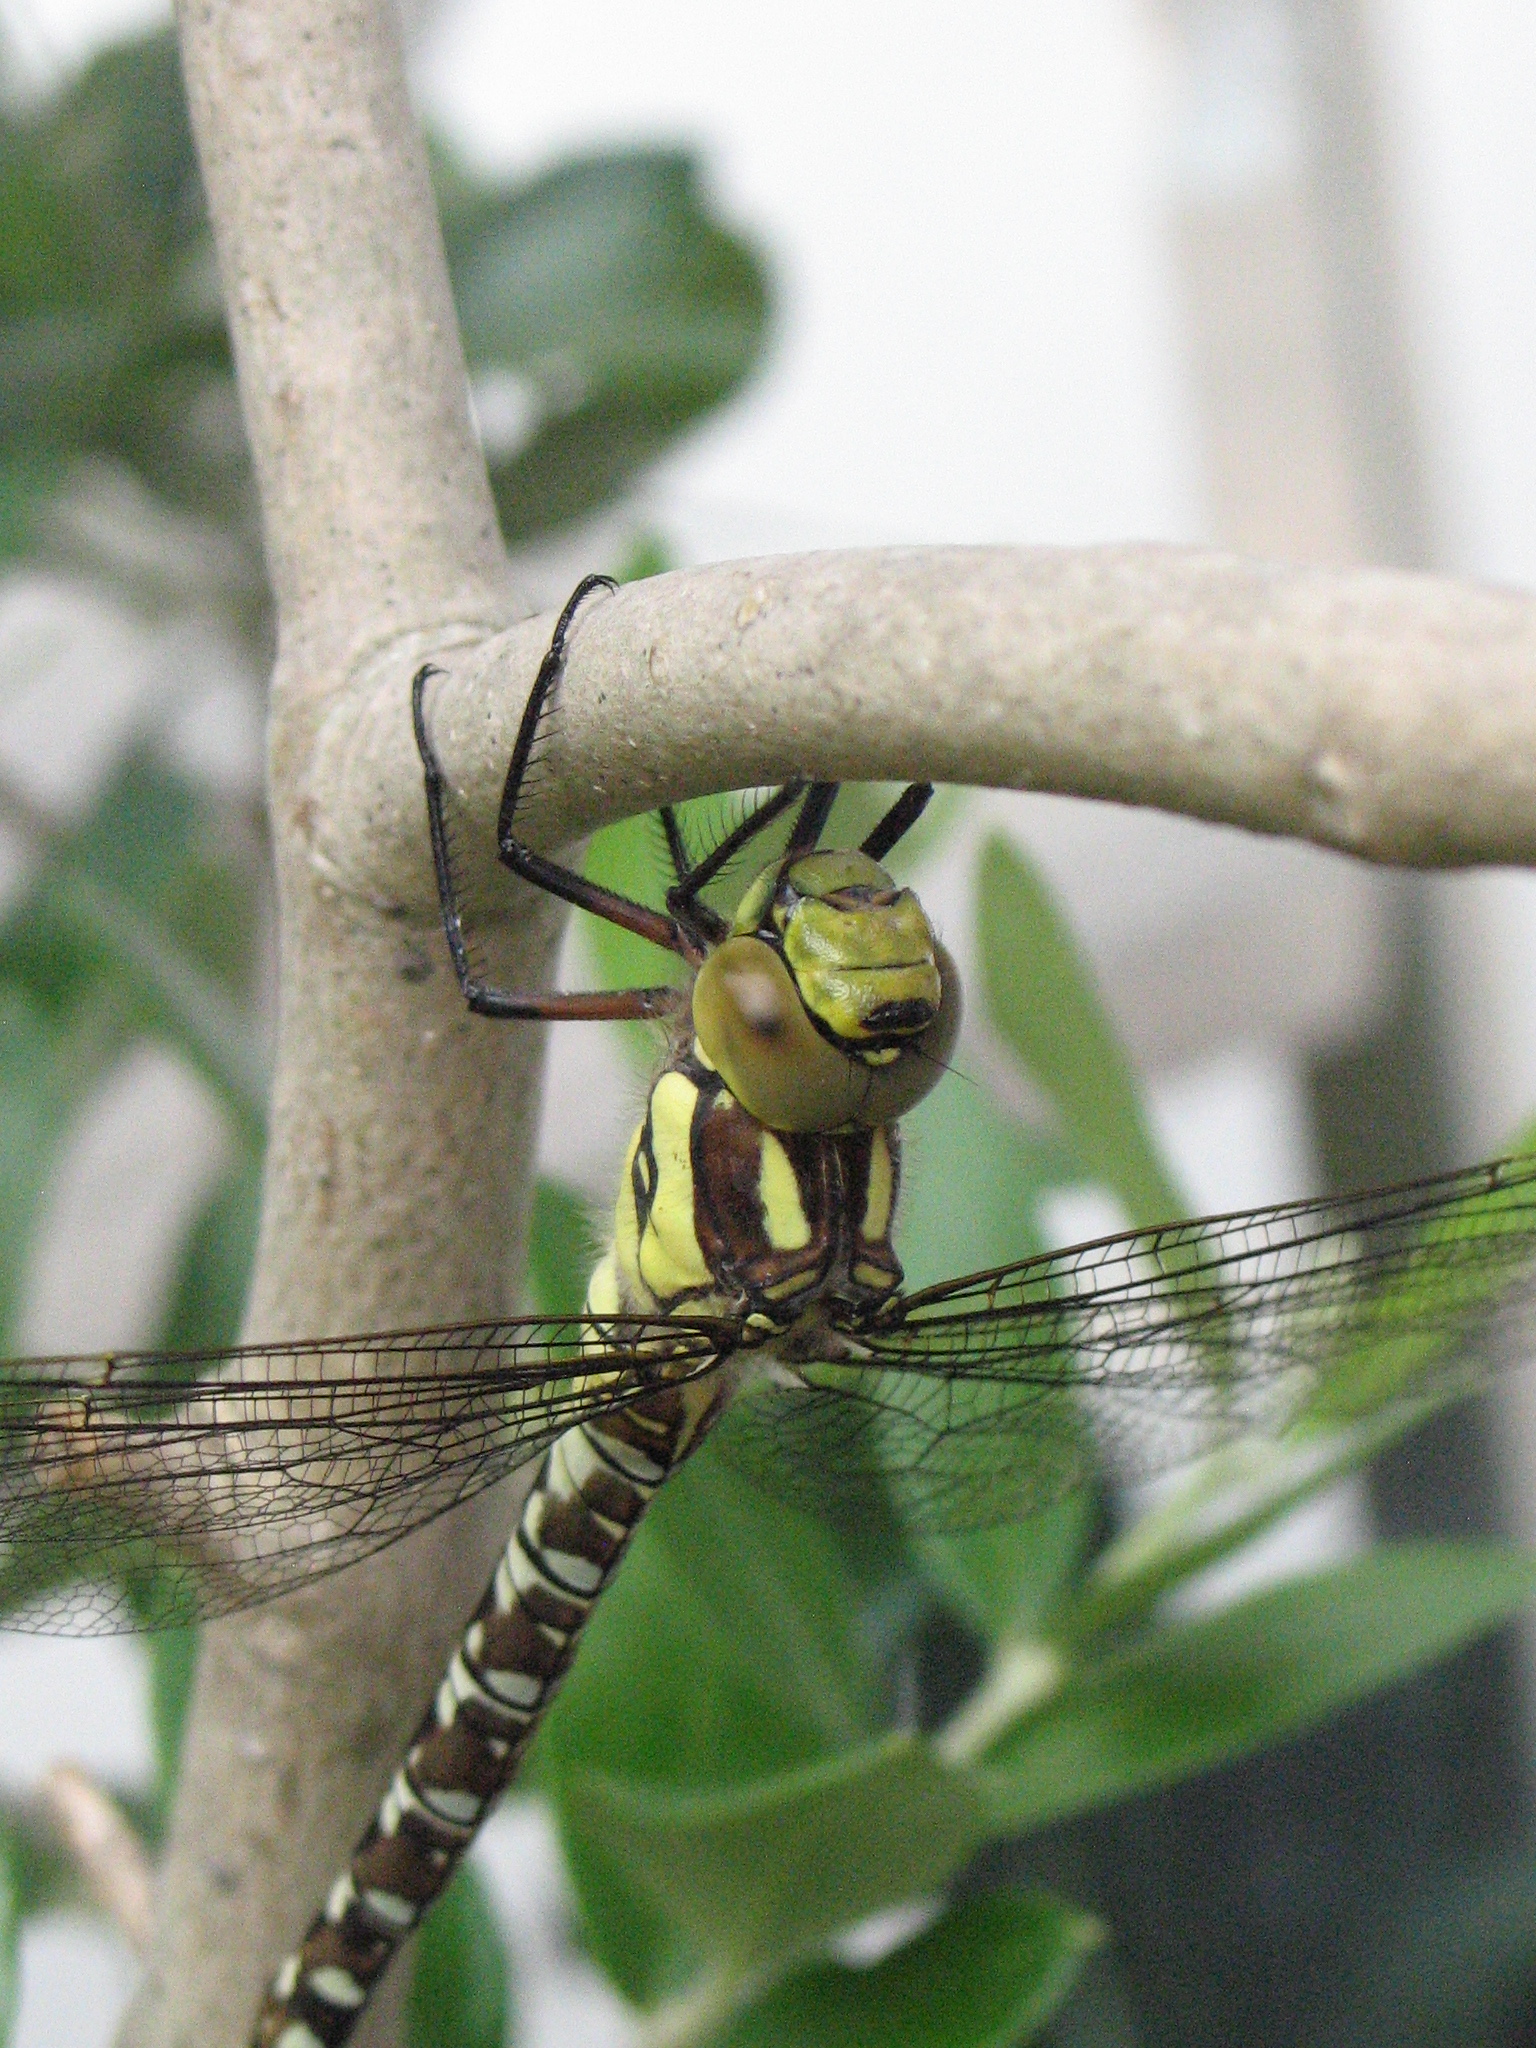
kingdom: Animalia
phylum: Arthropoda
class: Insecta
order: Odonata
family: Aeshnidae
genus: Aeshna
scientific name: Aeshna cyanea
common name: Southern hawker
